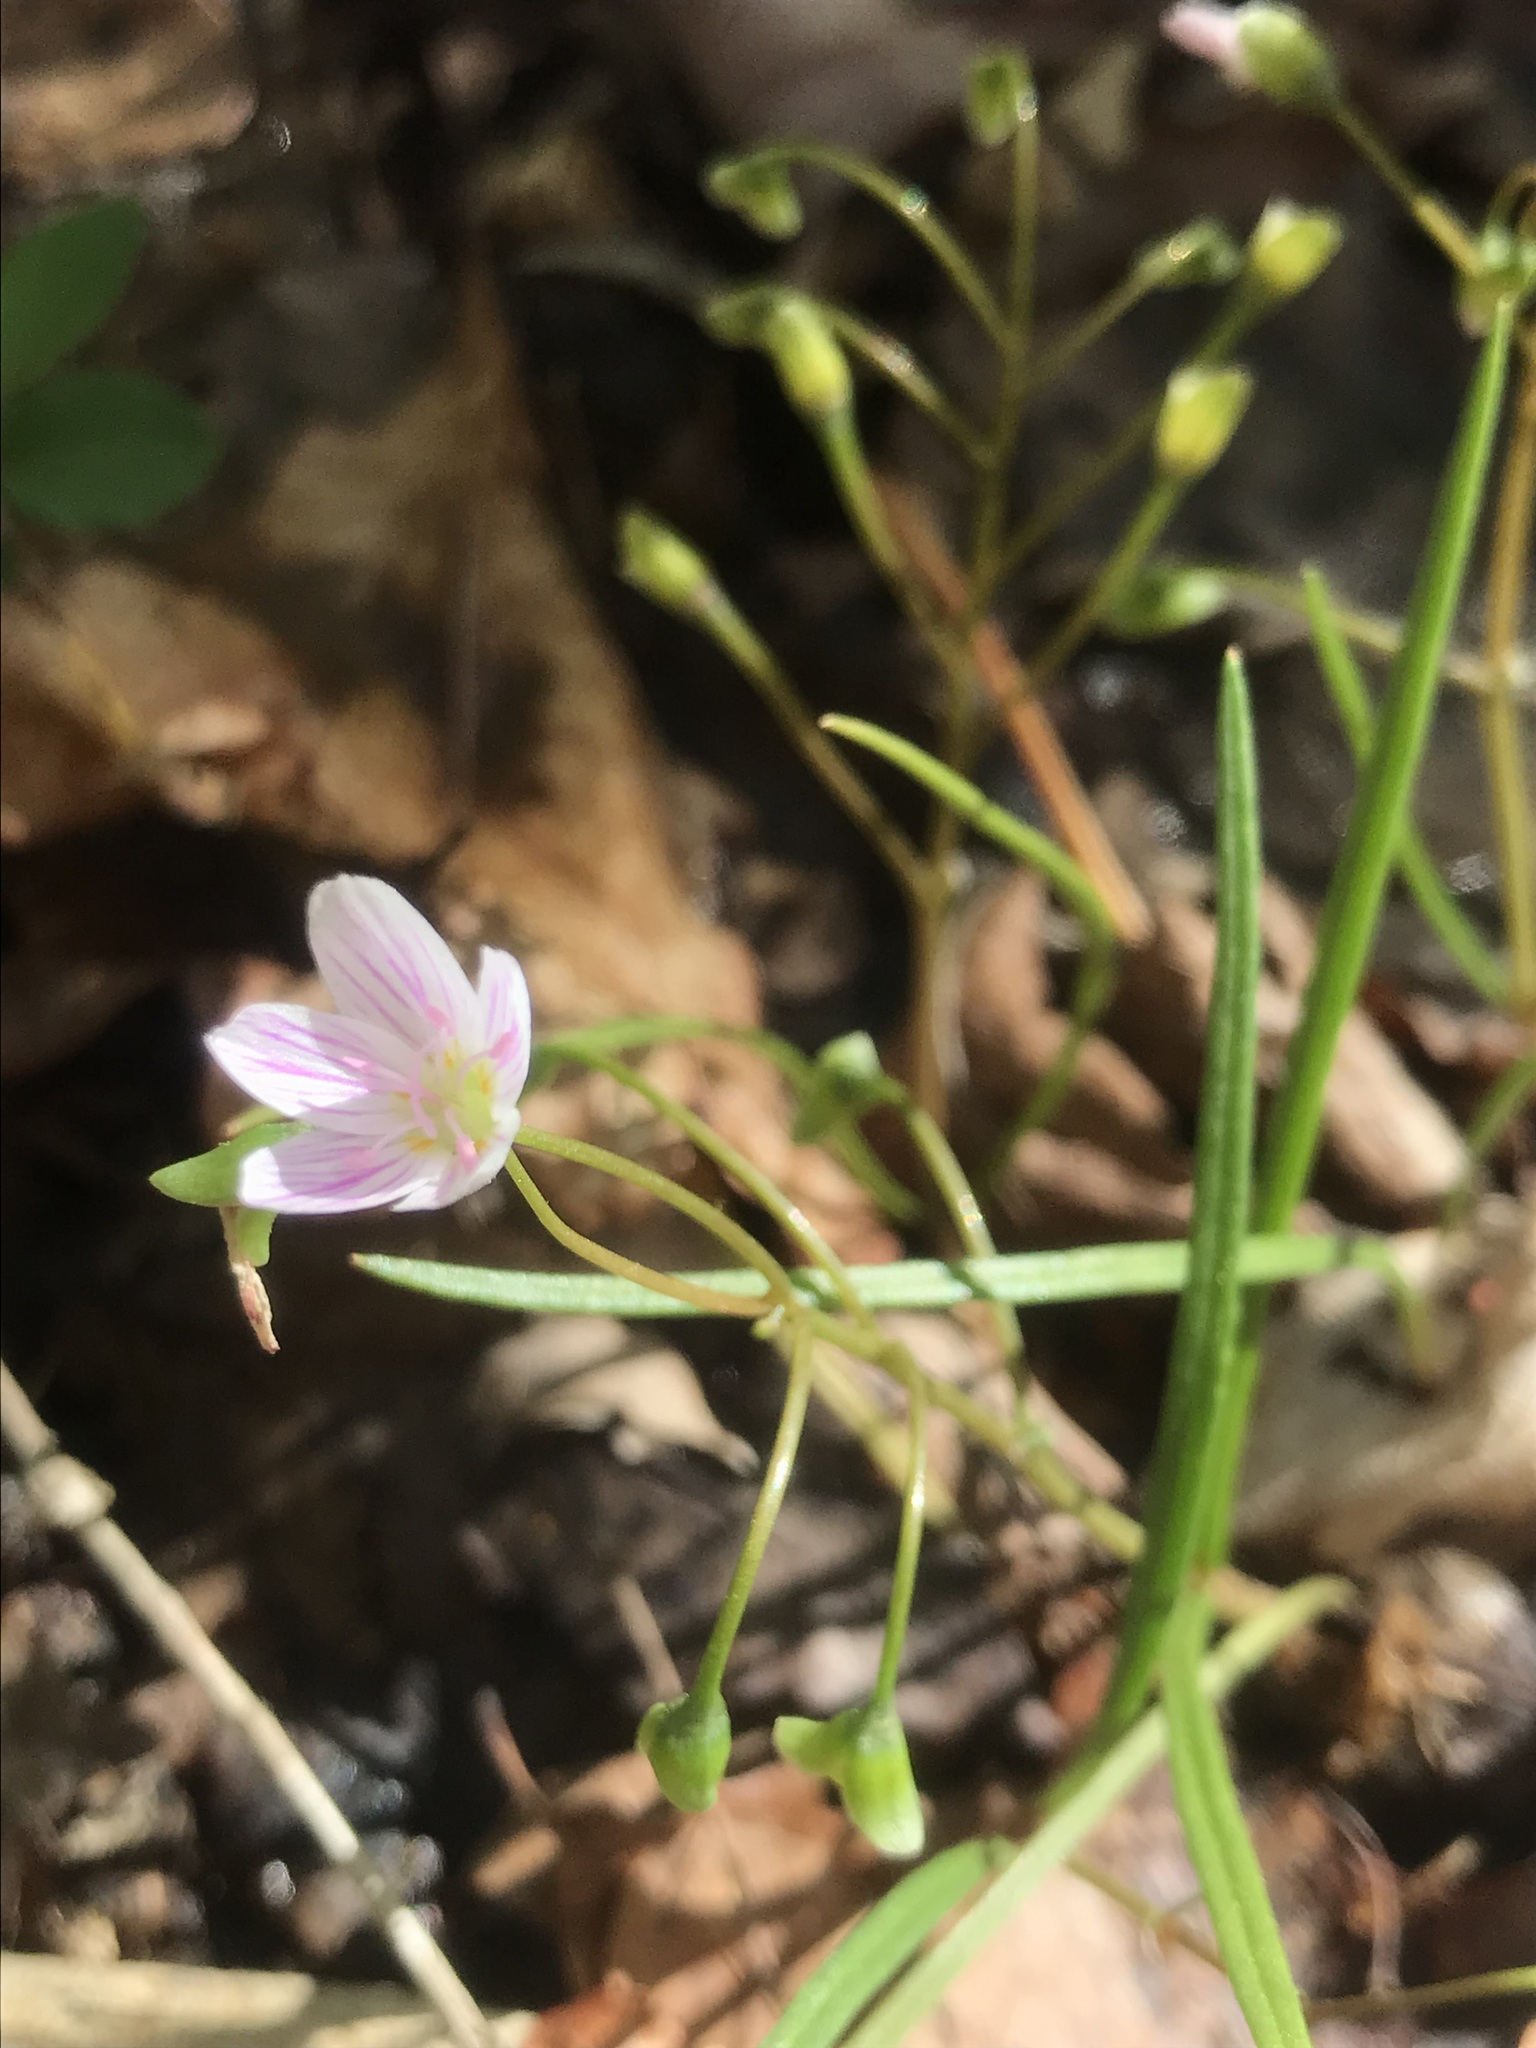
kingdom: Plantae
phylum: Tracheophyta
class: Magnoliopsida
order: Caryophyllales
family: Montiaceae
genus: Claytonia
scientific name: Claytonia virginica
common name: Virginia springbeauty
